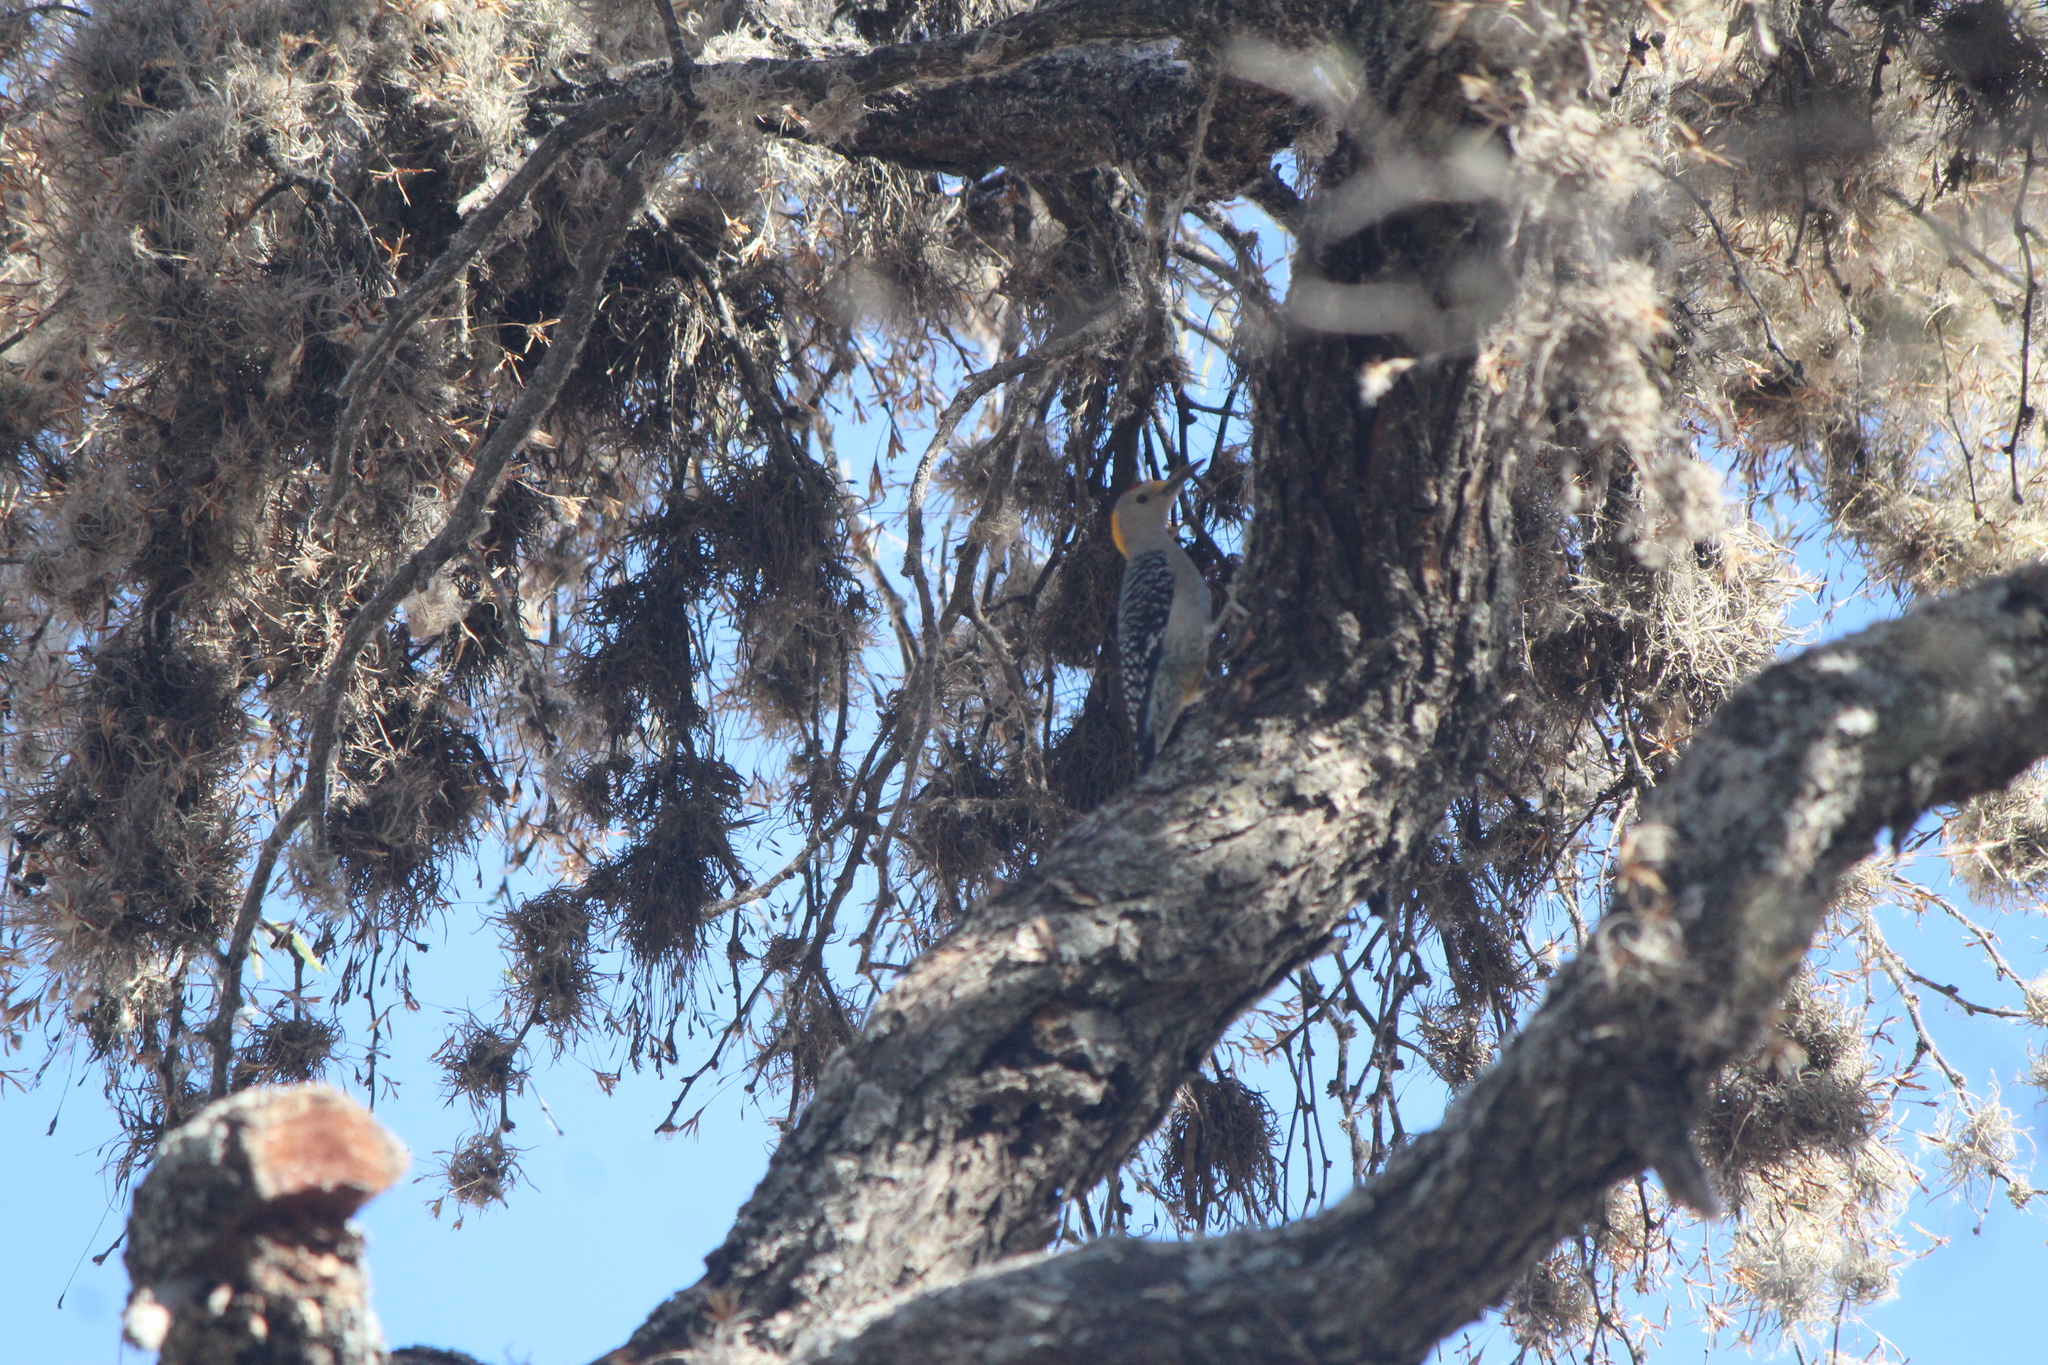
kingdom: Animalia
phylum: Chordata
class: Aves
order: Piciformes
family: Picidae
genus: Melanerpes
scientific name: Melanerpes aurifrons
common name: Golden-fronted woodpecker
